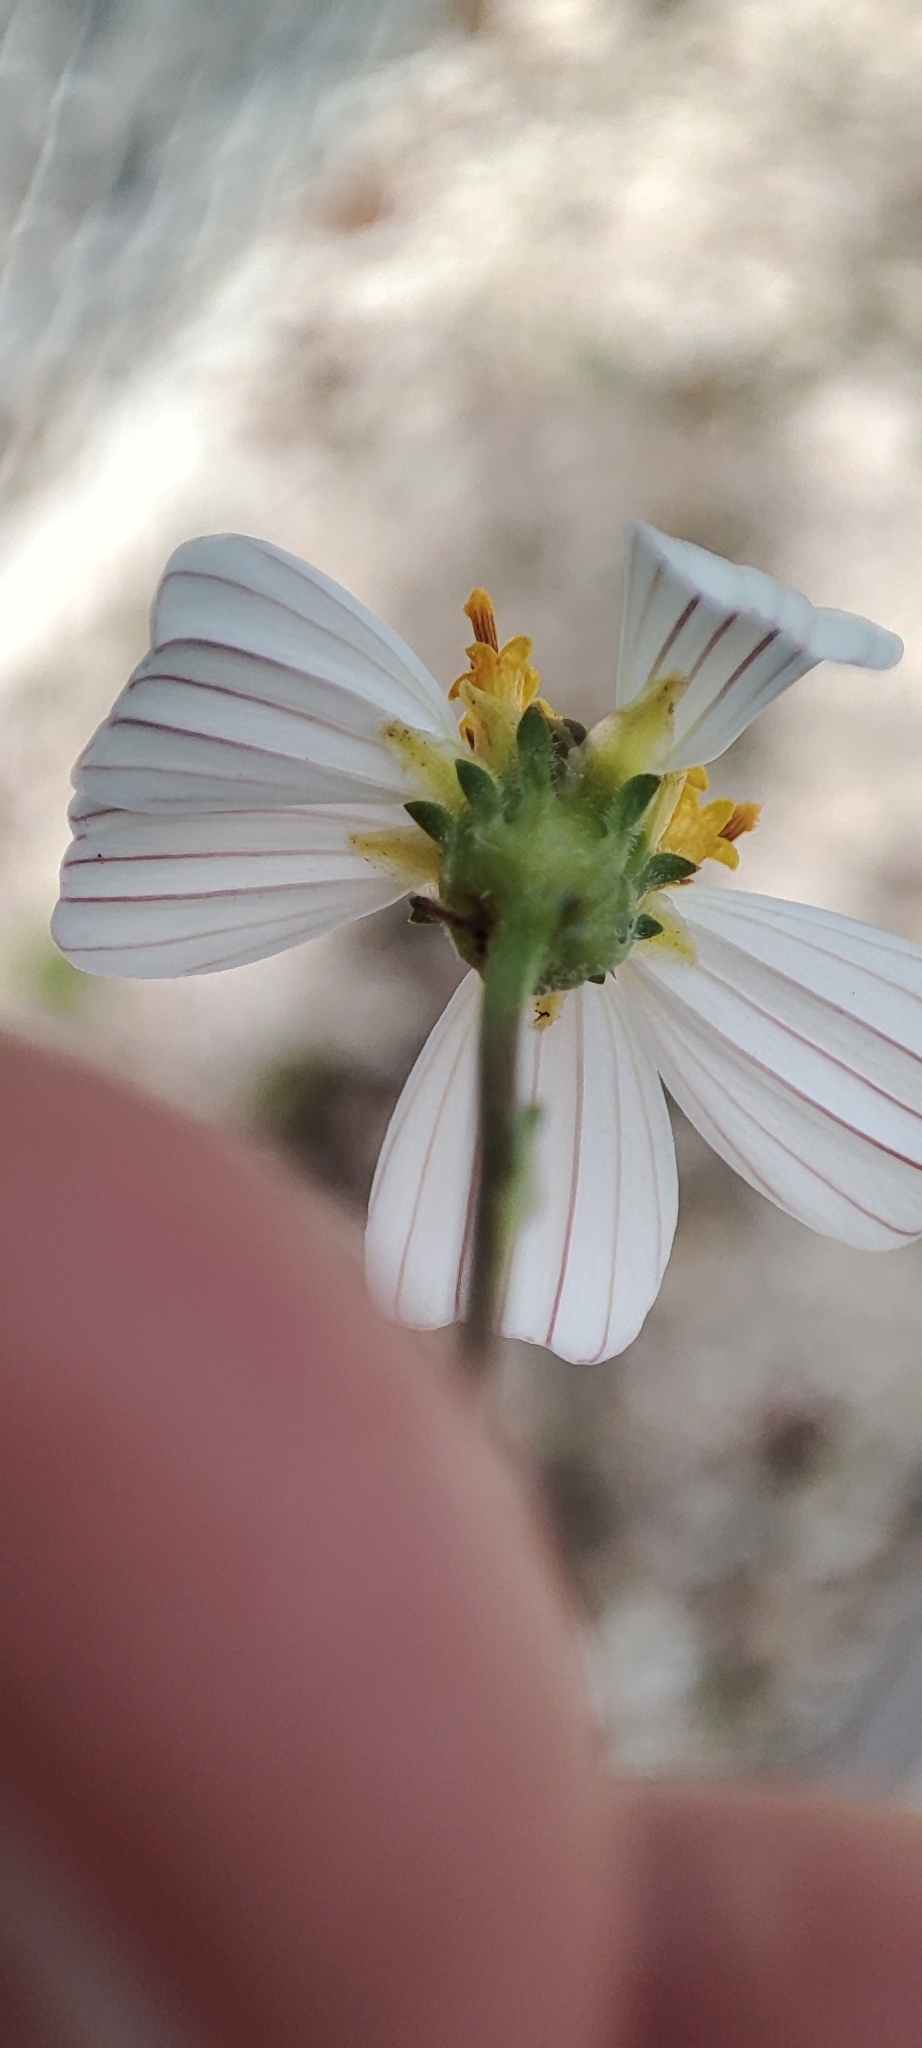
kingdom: Plantae
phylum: Tracheophyta
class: Magnoliopsida
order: Asterales
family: Asteraceae
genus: Bidens
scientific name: Bidens alba
